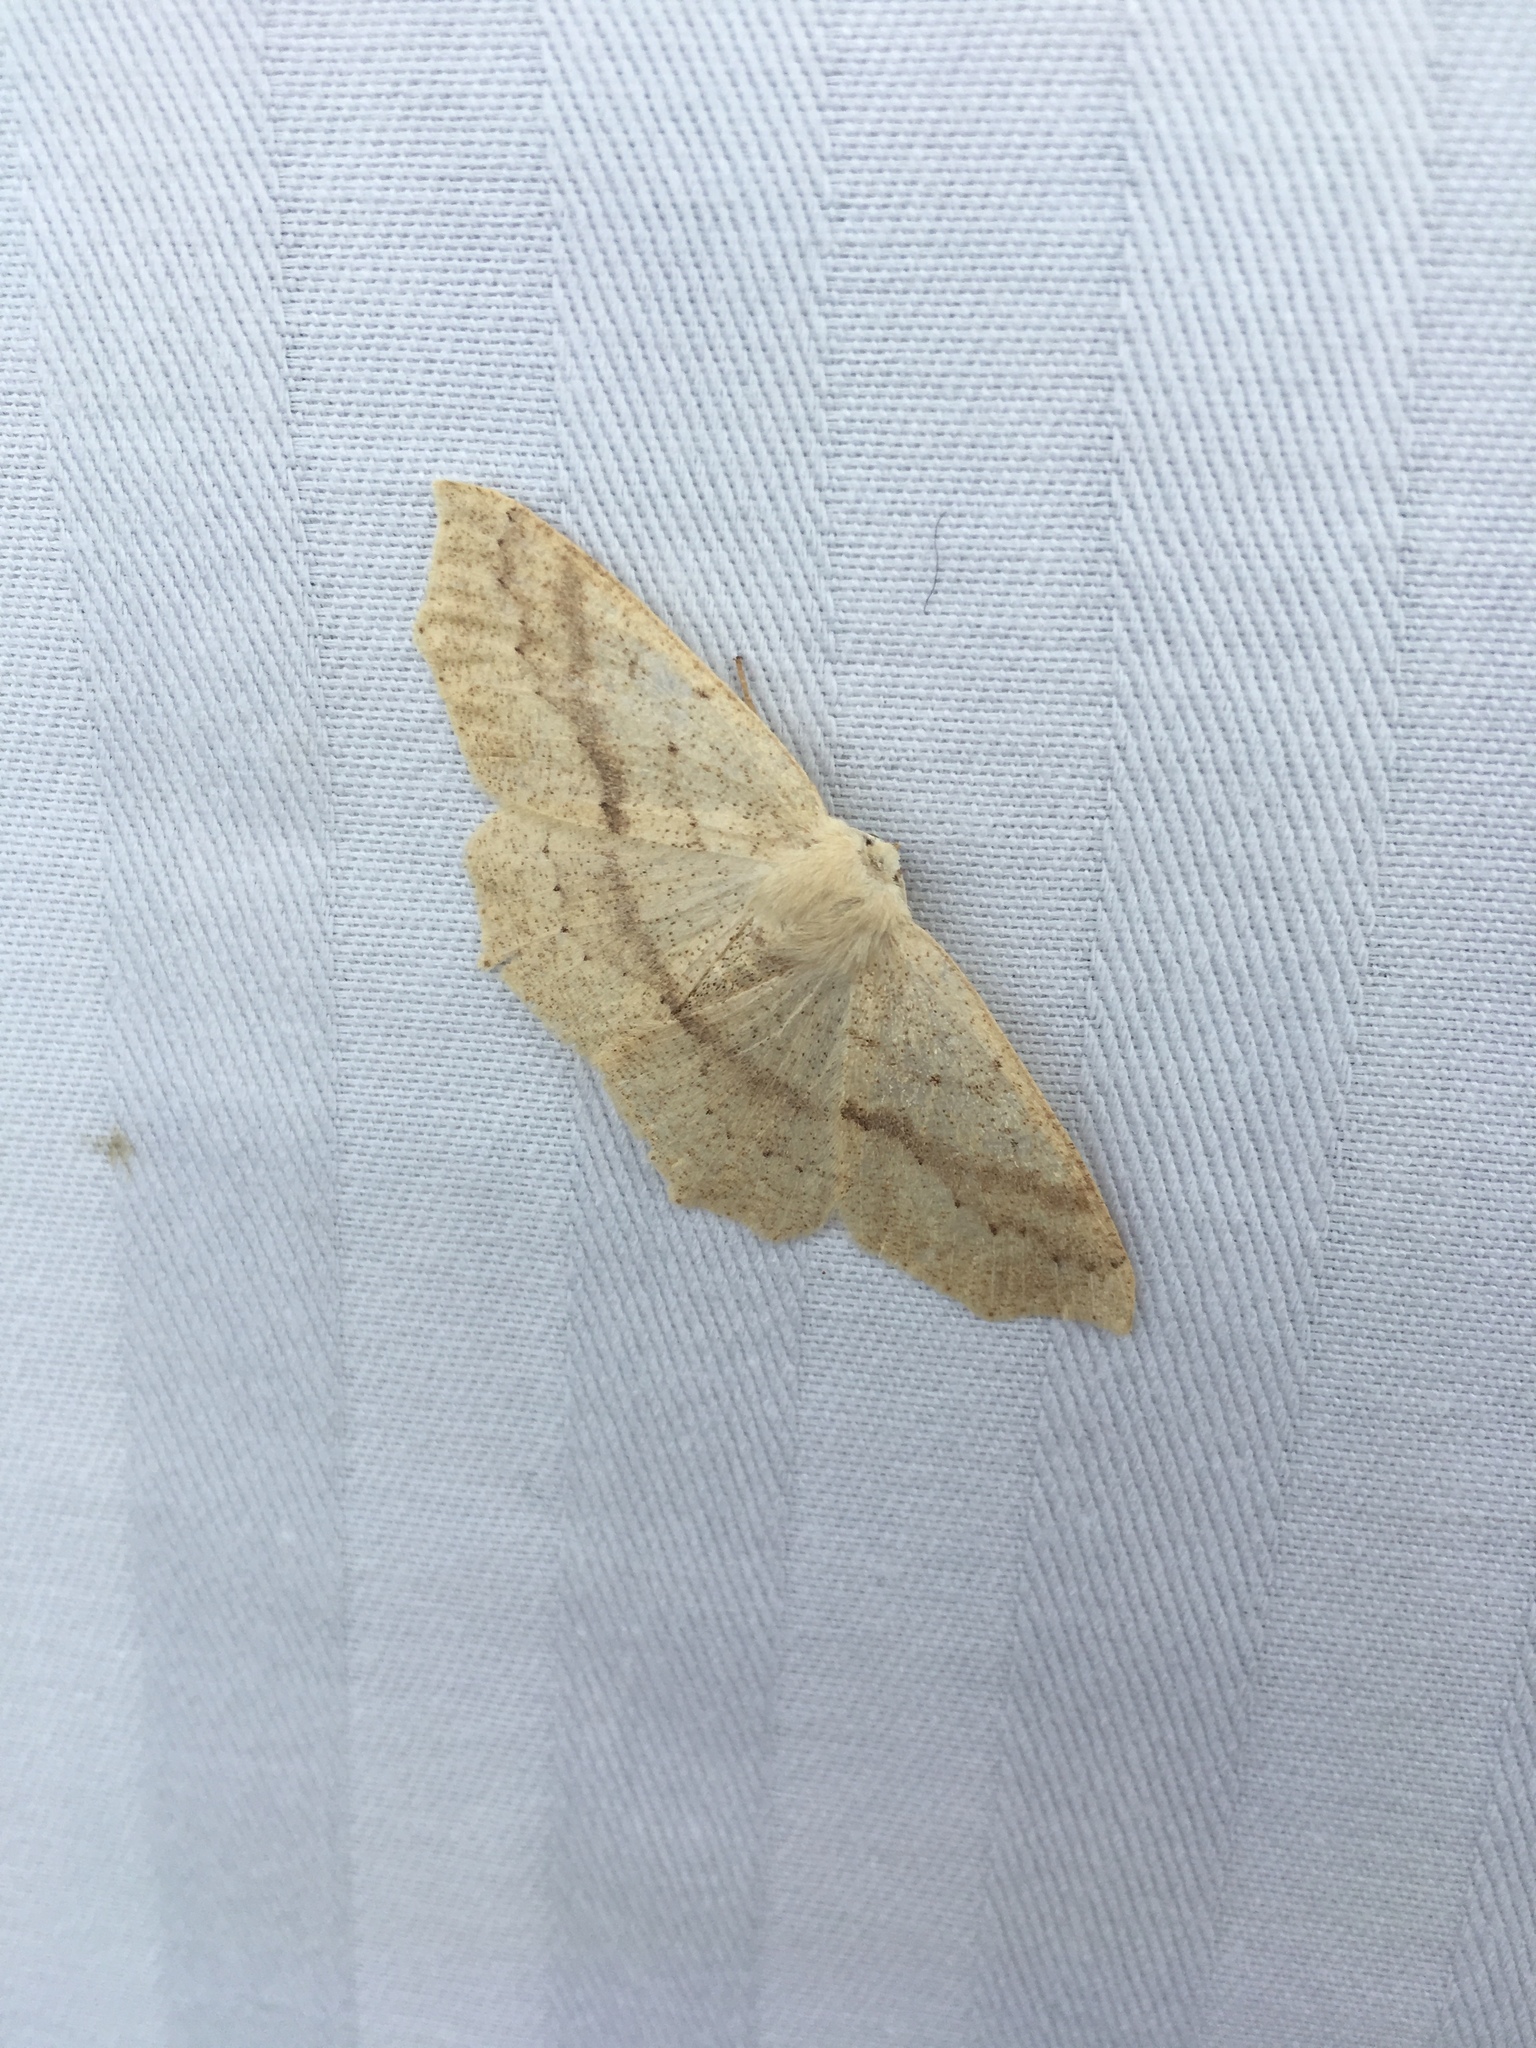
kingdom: Animalia
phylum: Arthropoda
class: Insecta
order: Lepidoptera
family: Geometridae
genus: Sabulodes
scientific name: Sabulodes aegrotata
